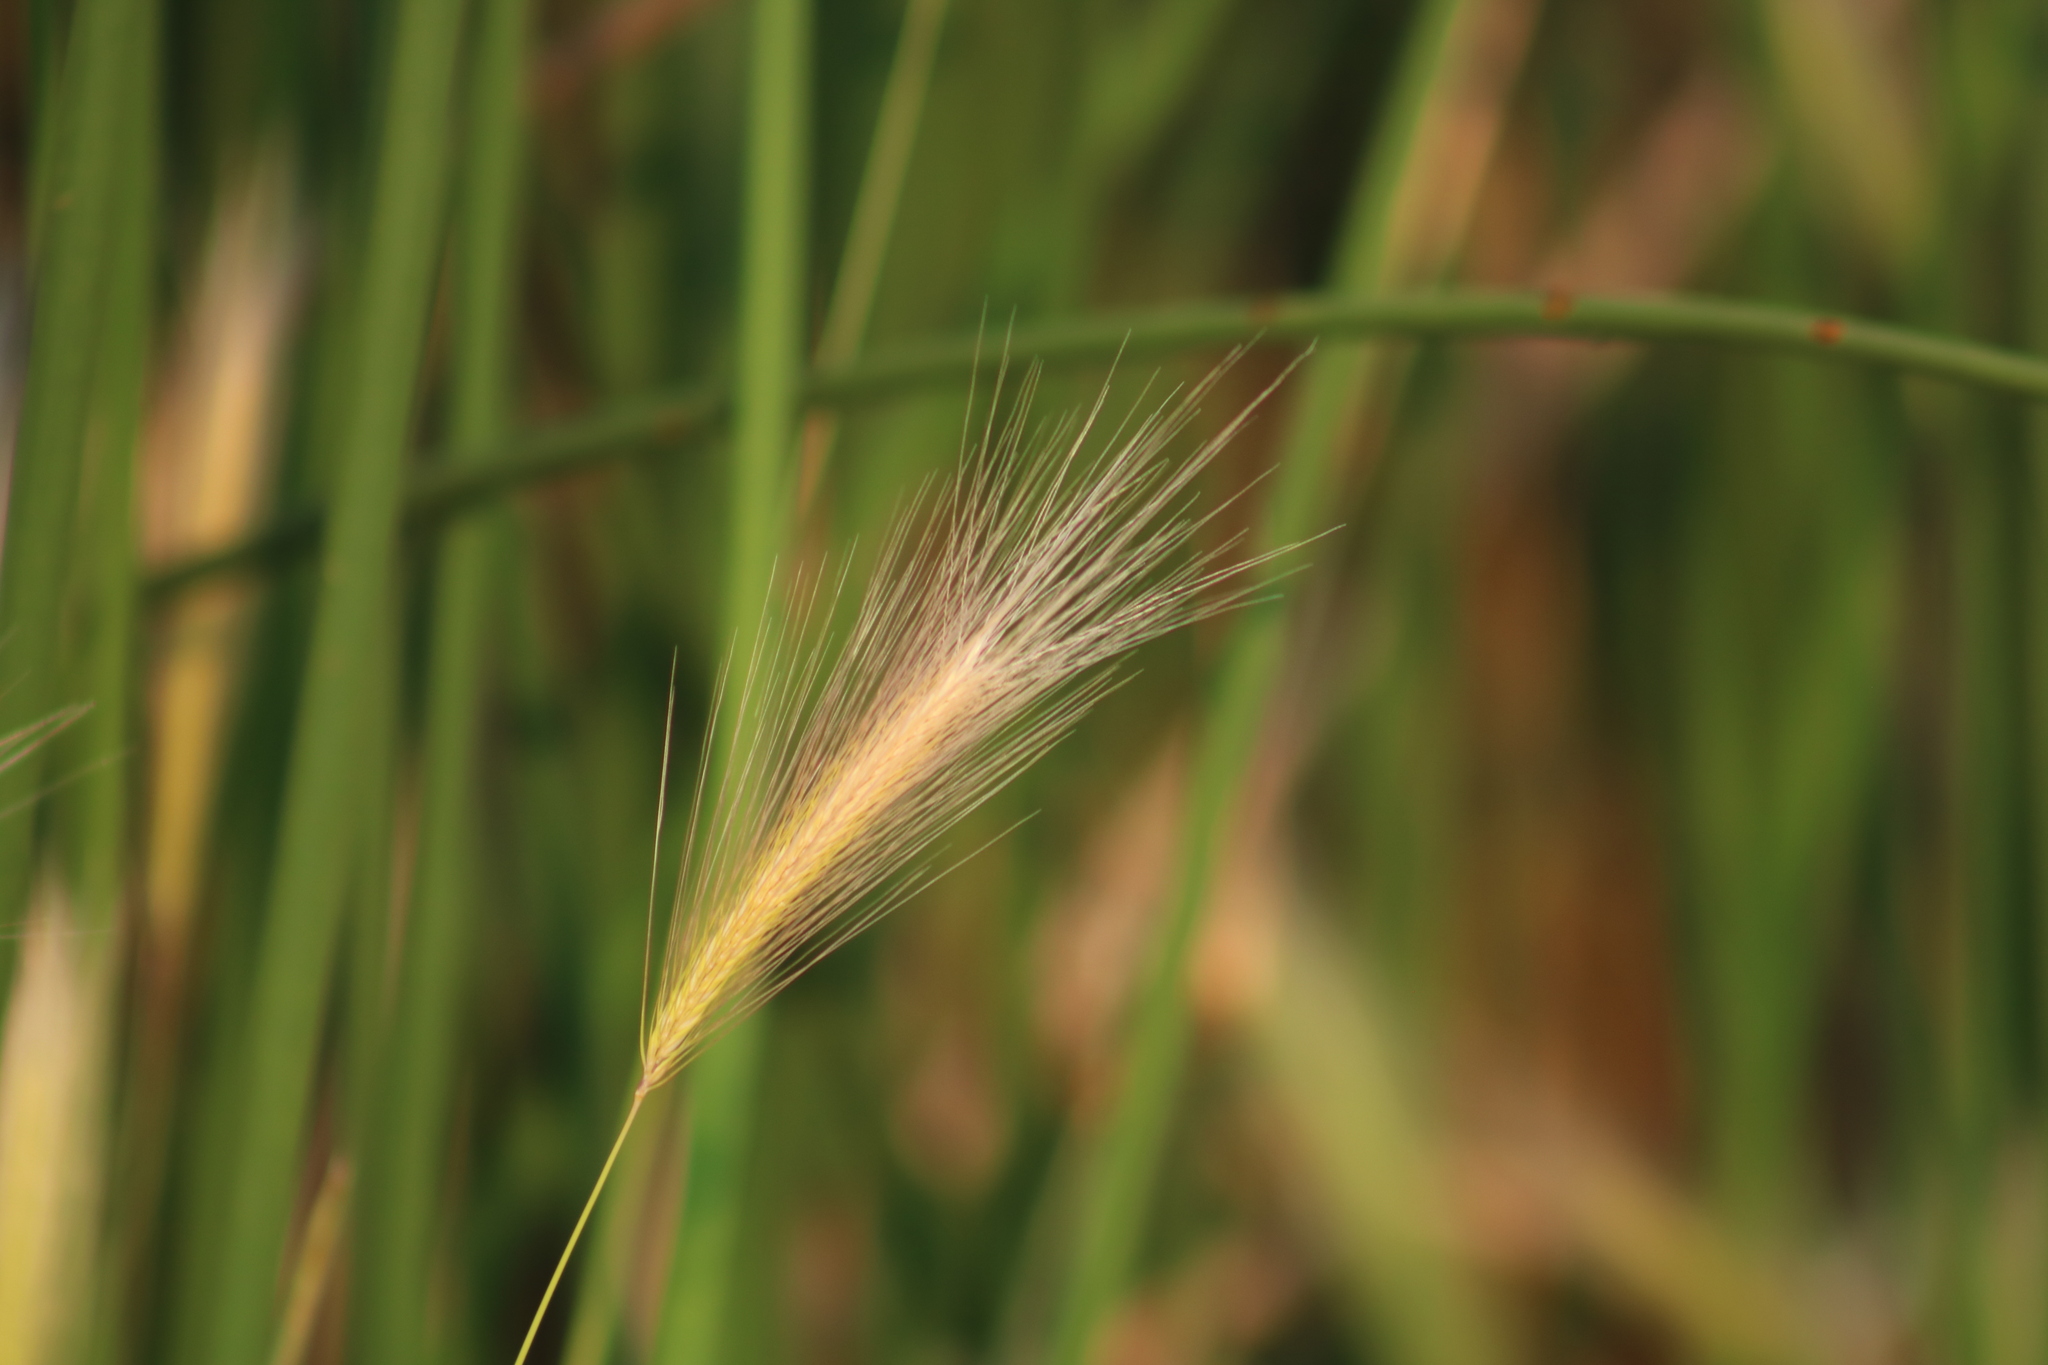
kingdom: Plantae
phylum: Tracheophyta
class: Liliopsida
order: Poales
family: Poaceae
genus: Hordeum
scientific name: Hordeum jubatum
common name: Foxtail barley
